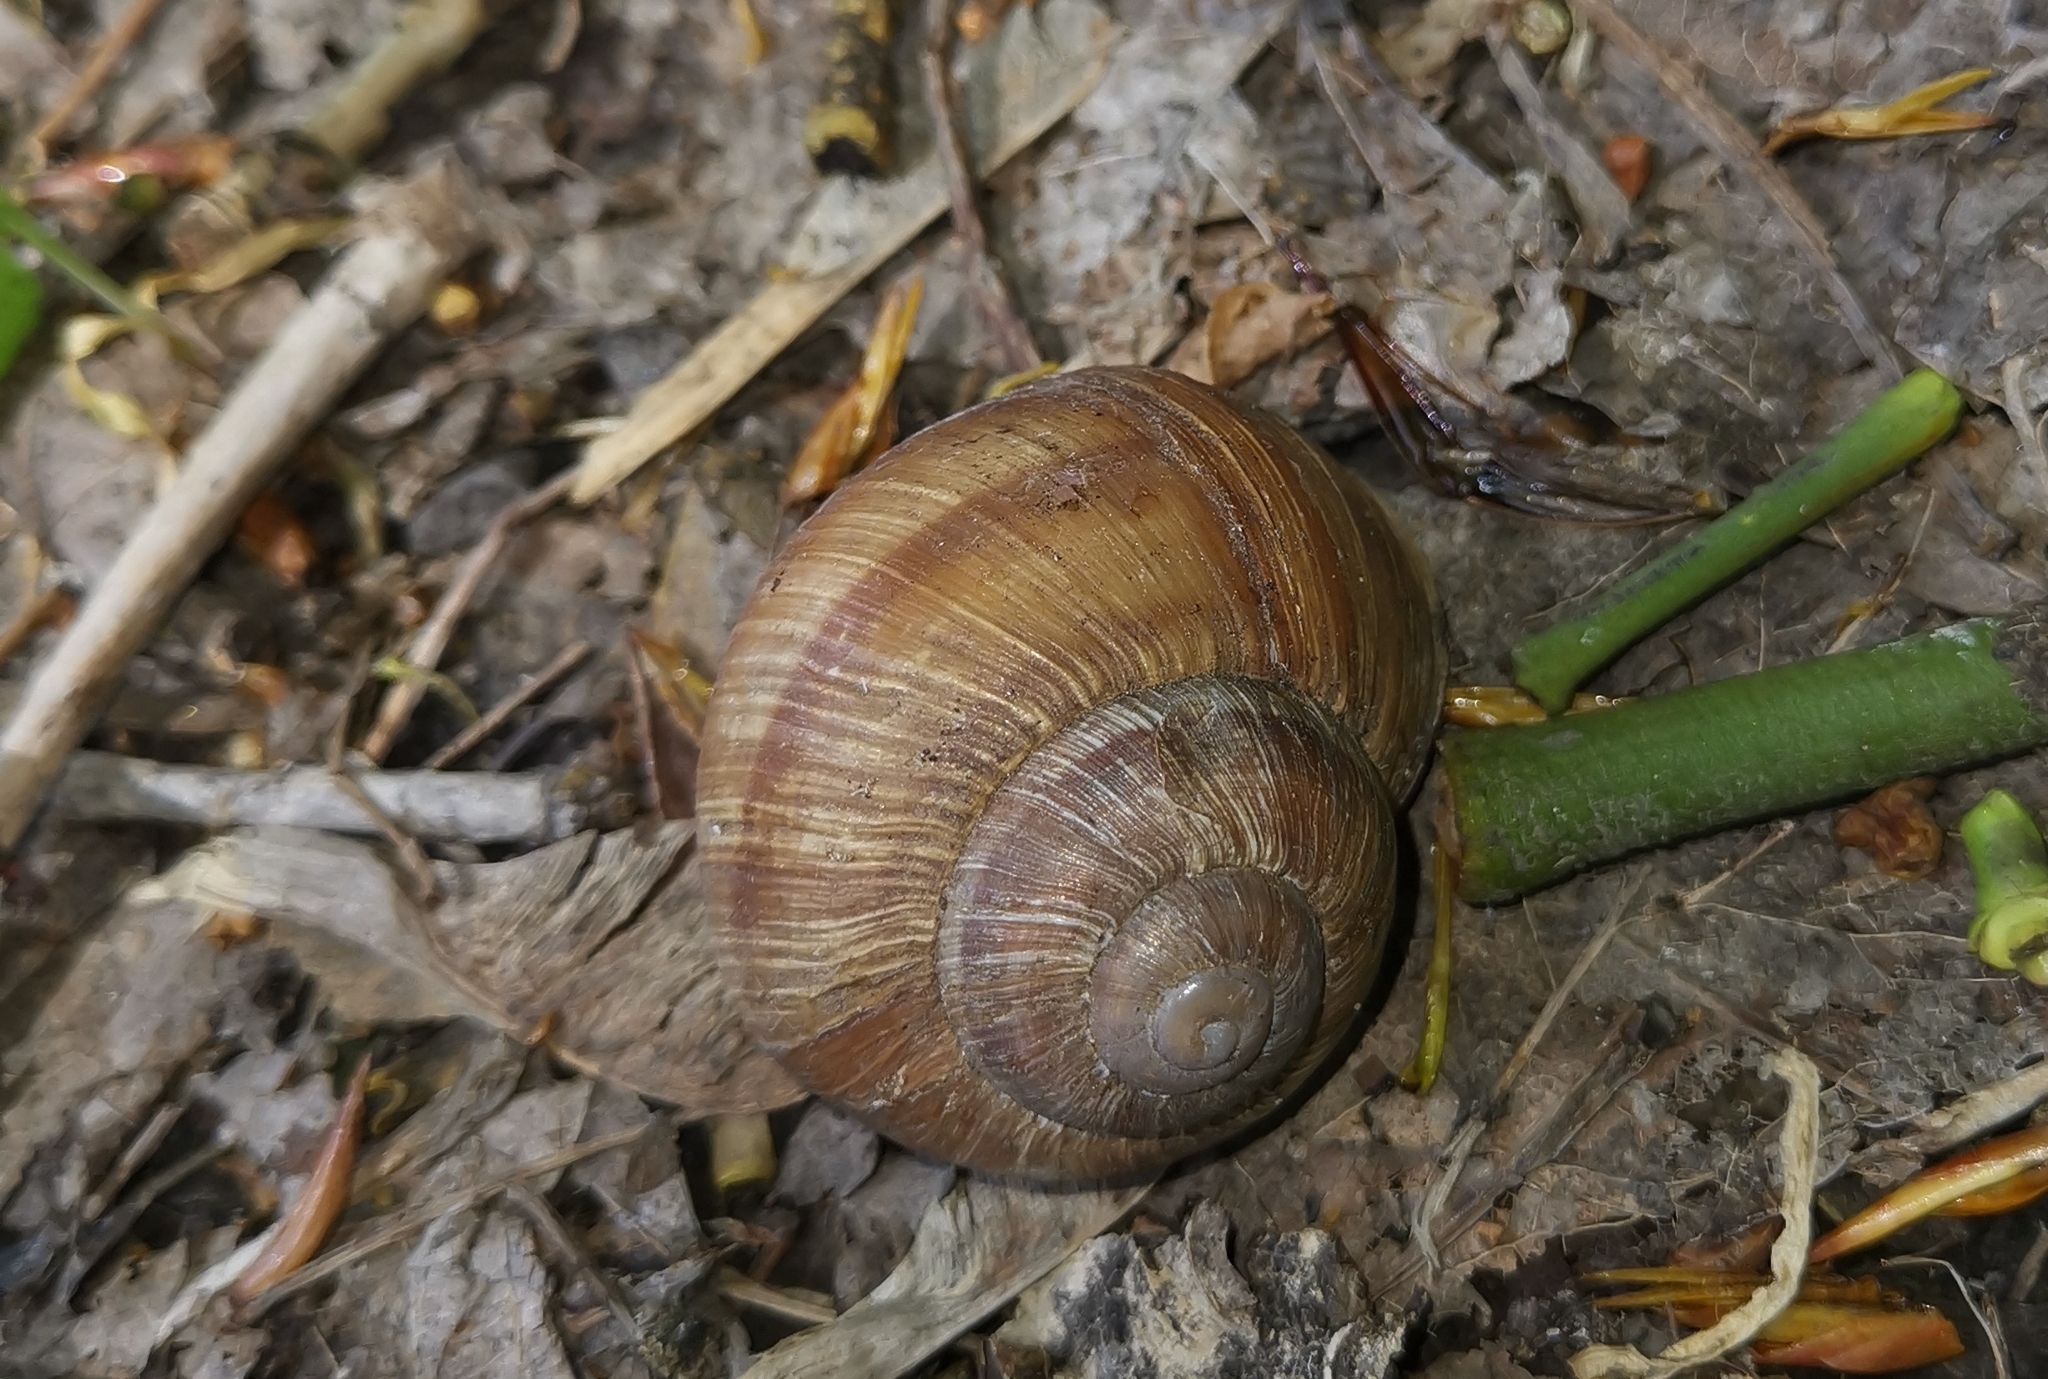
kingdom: Animalia
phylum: Mollusca
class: Gastropoda
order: Stylommatophora
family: Helicidae
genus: Helix
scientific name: Helix pomatia
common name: Roman snail
